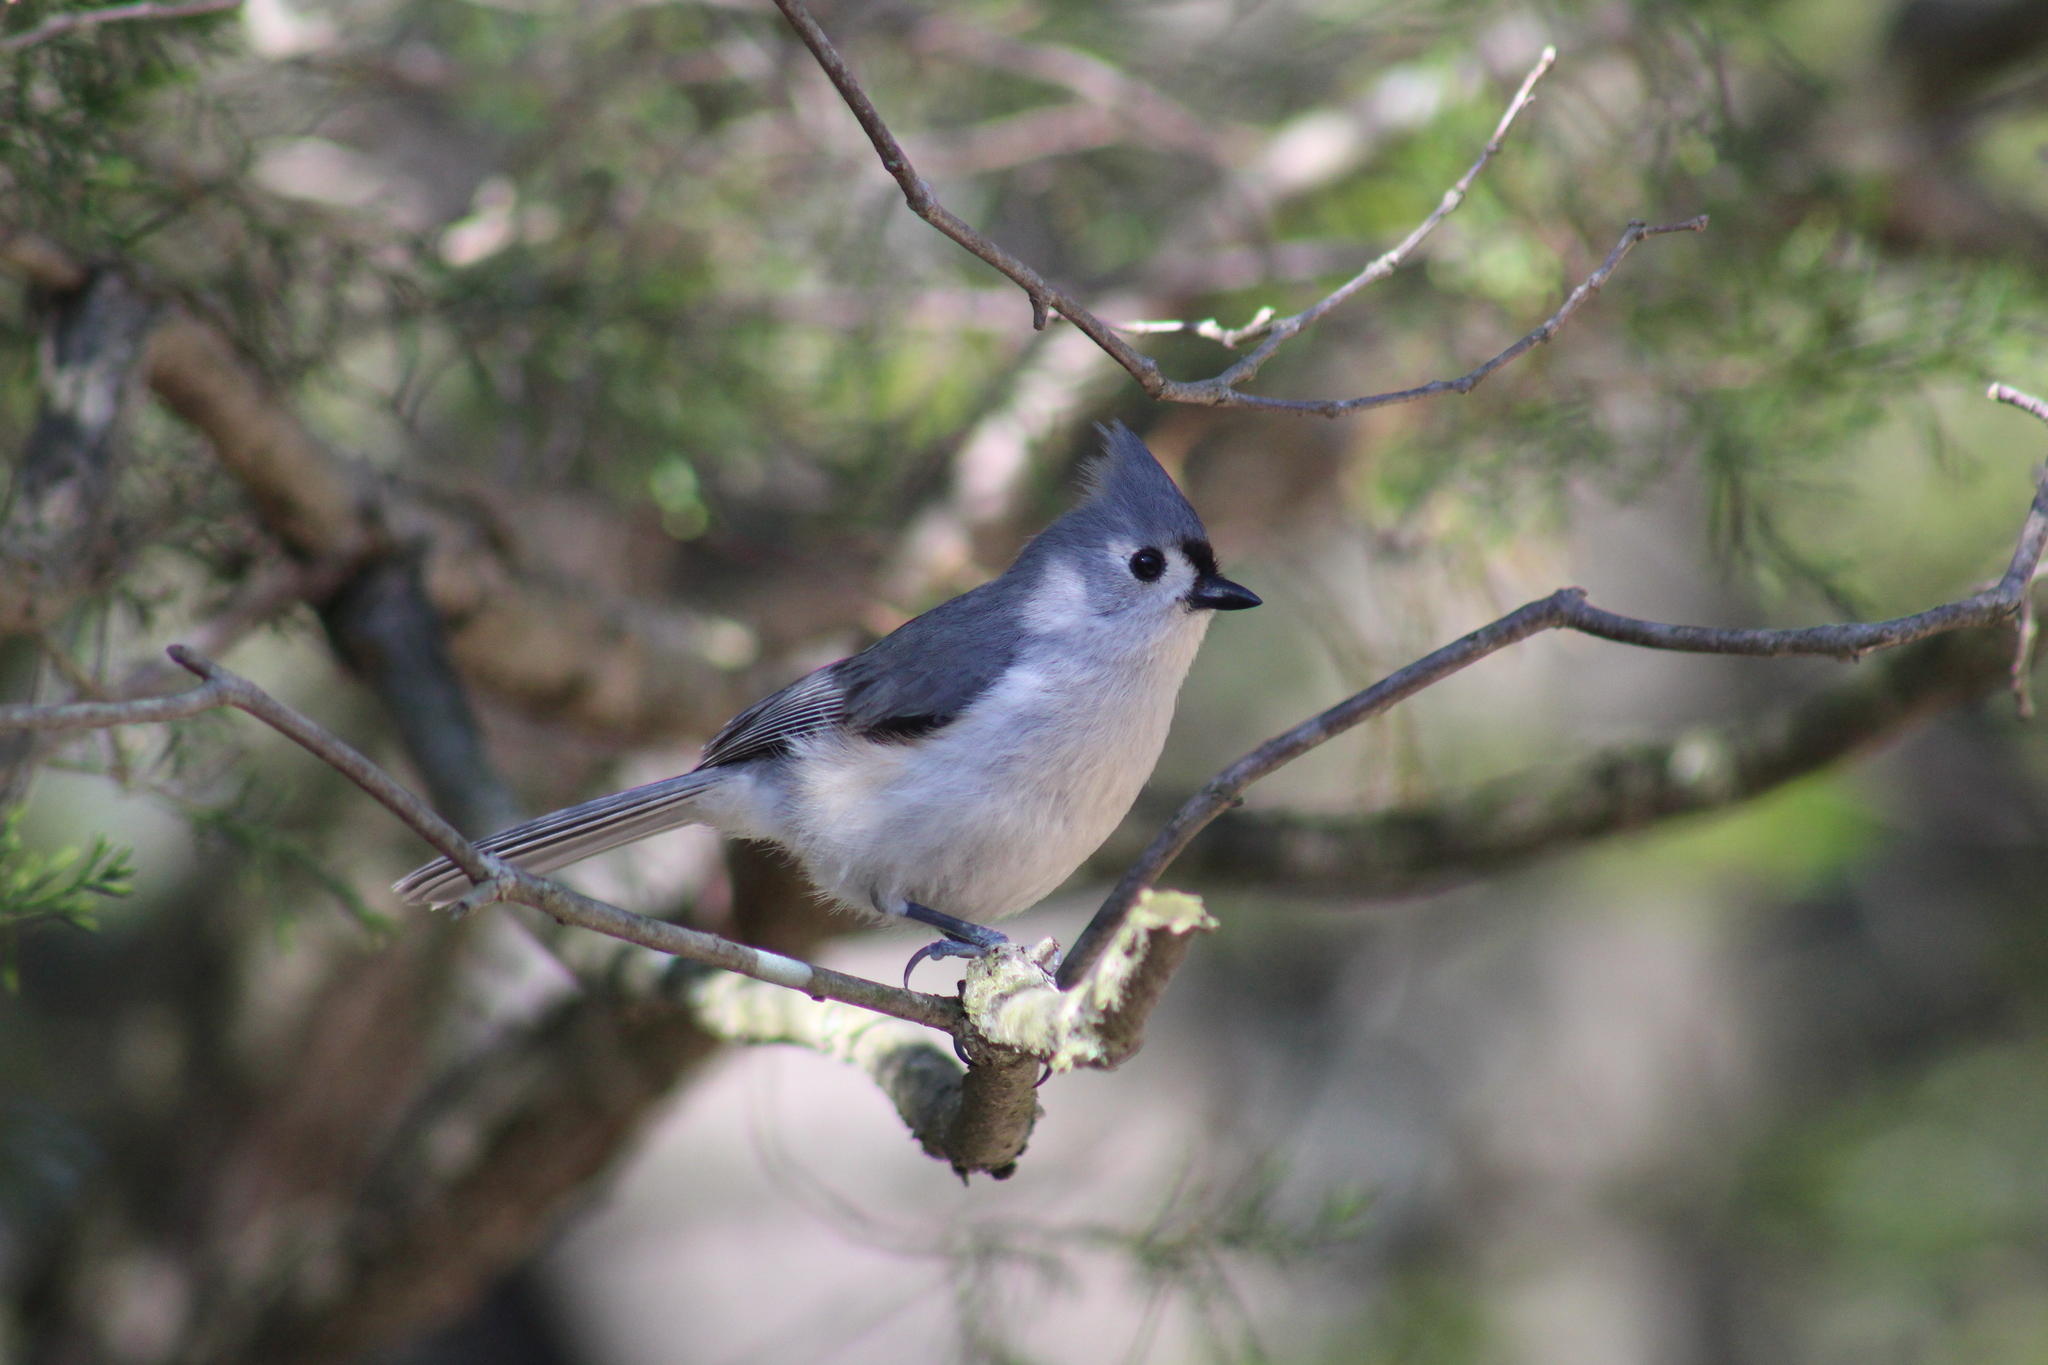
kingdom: Animalia
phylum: Chordata
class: Aves
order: Passeriformes
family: Paridae
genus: Baeolophus
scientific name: Baeolophus bicolor
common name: Tufted titmouse
